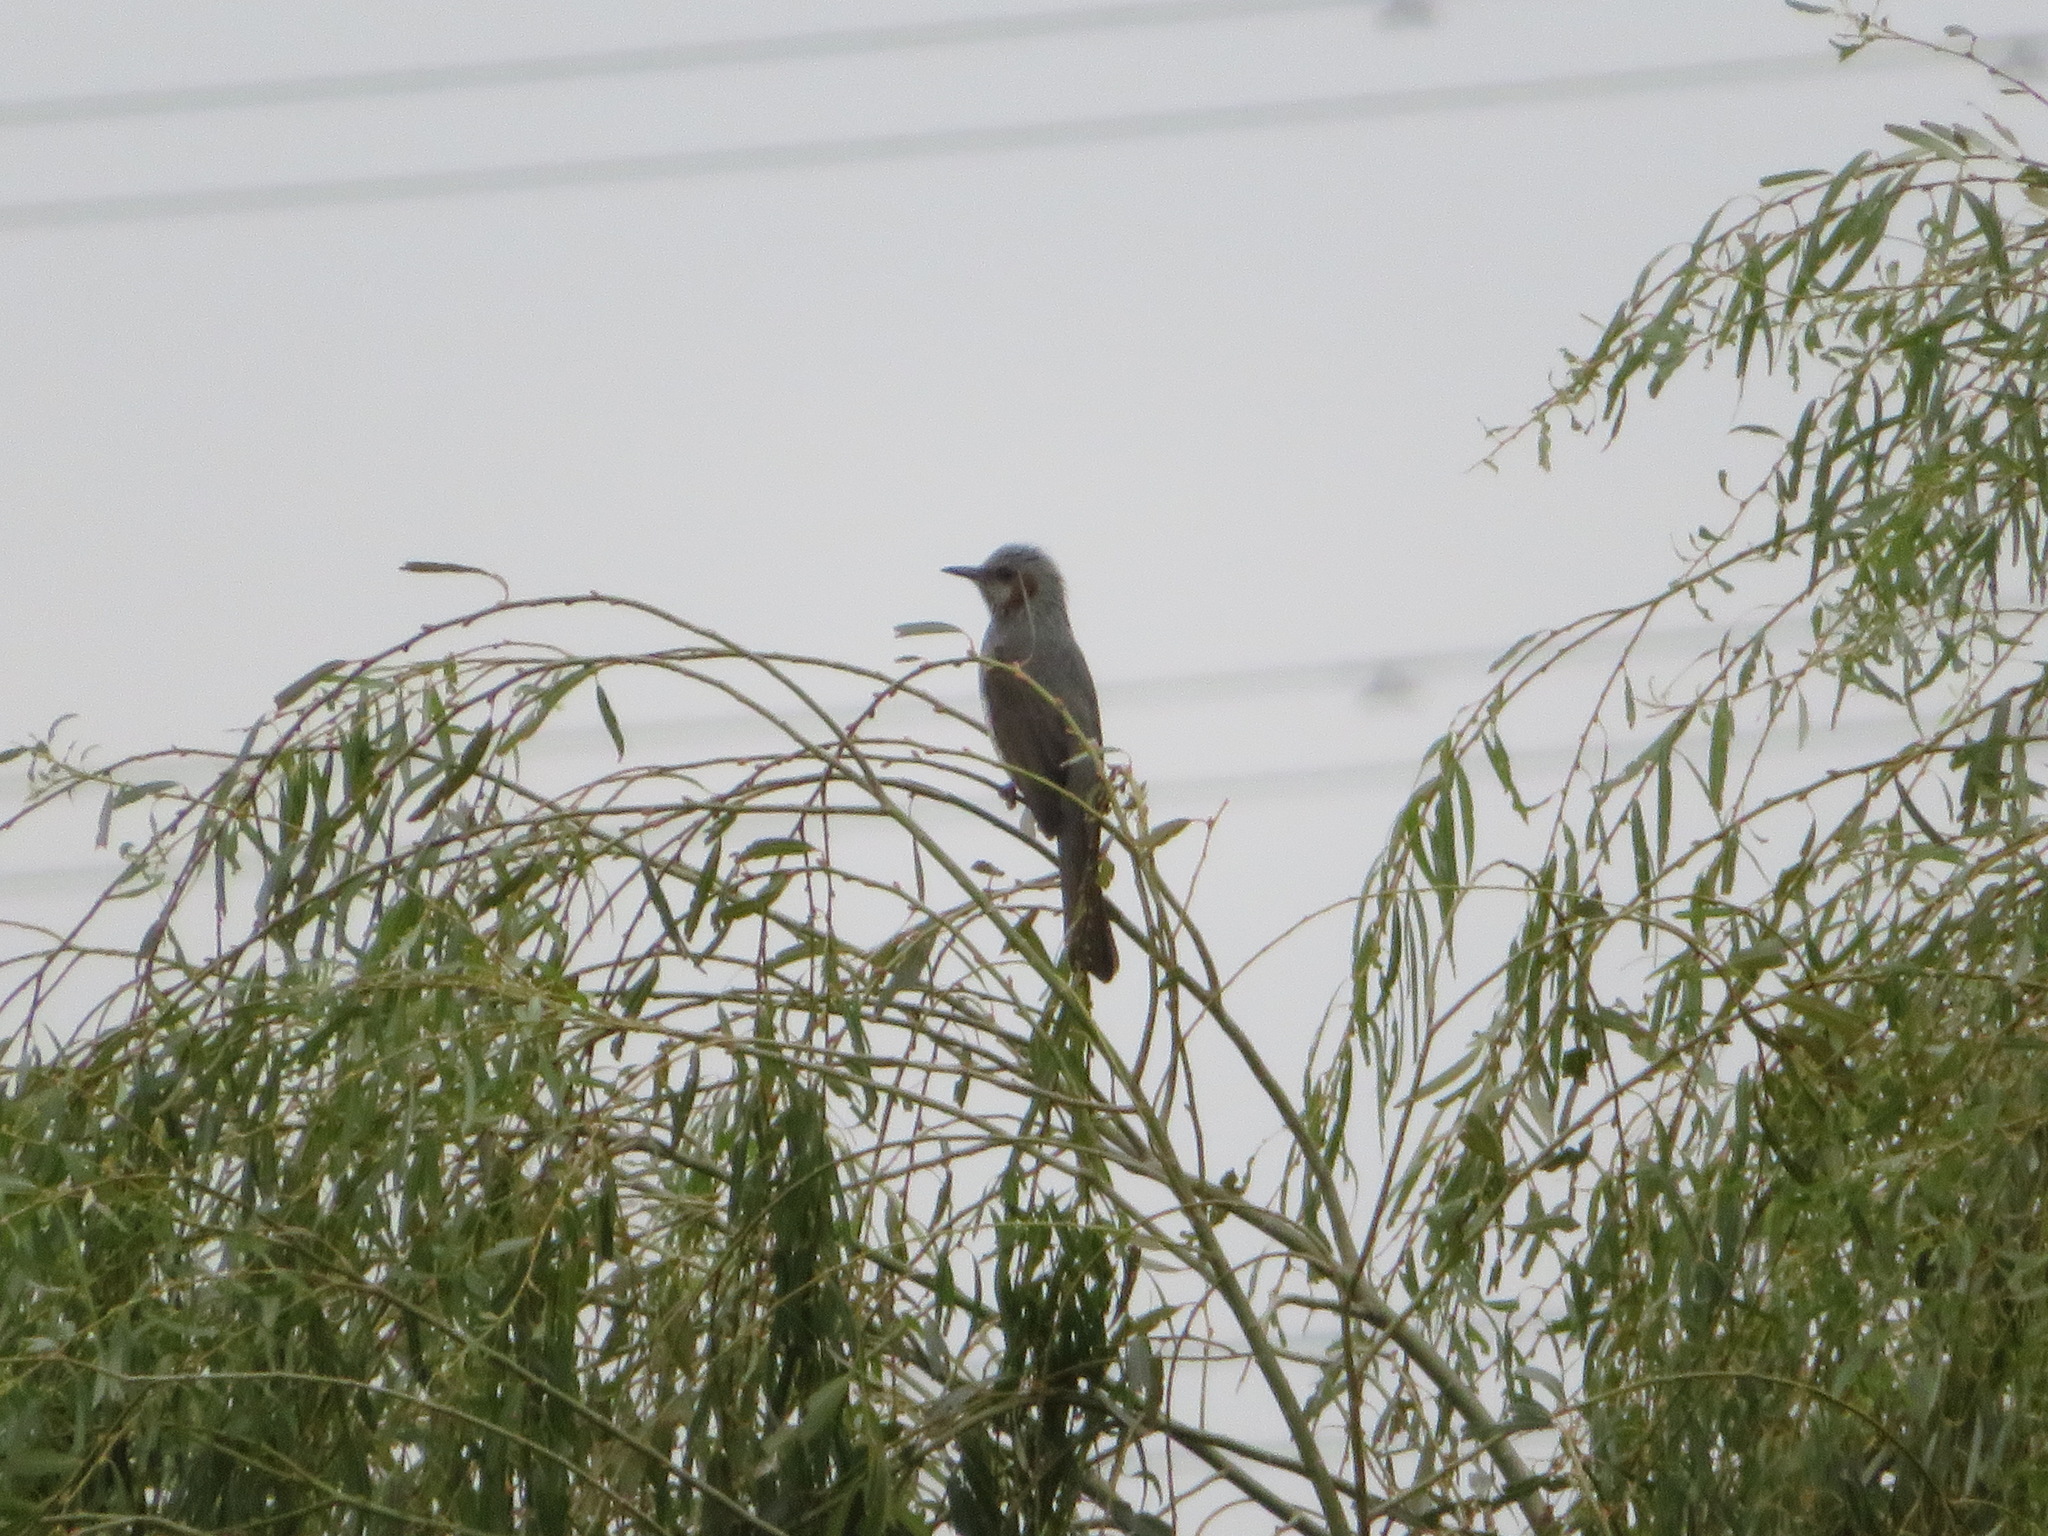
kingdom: Animalia
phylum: Chordata
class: Aves
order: Passeriformes
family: Pycnonotidae
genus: Hypsipetes
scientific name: Hypsipetes amaurotis
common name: Brown-eared bulbul
